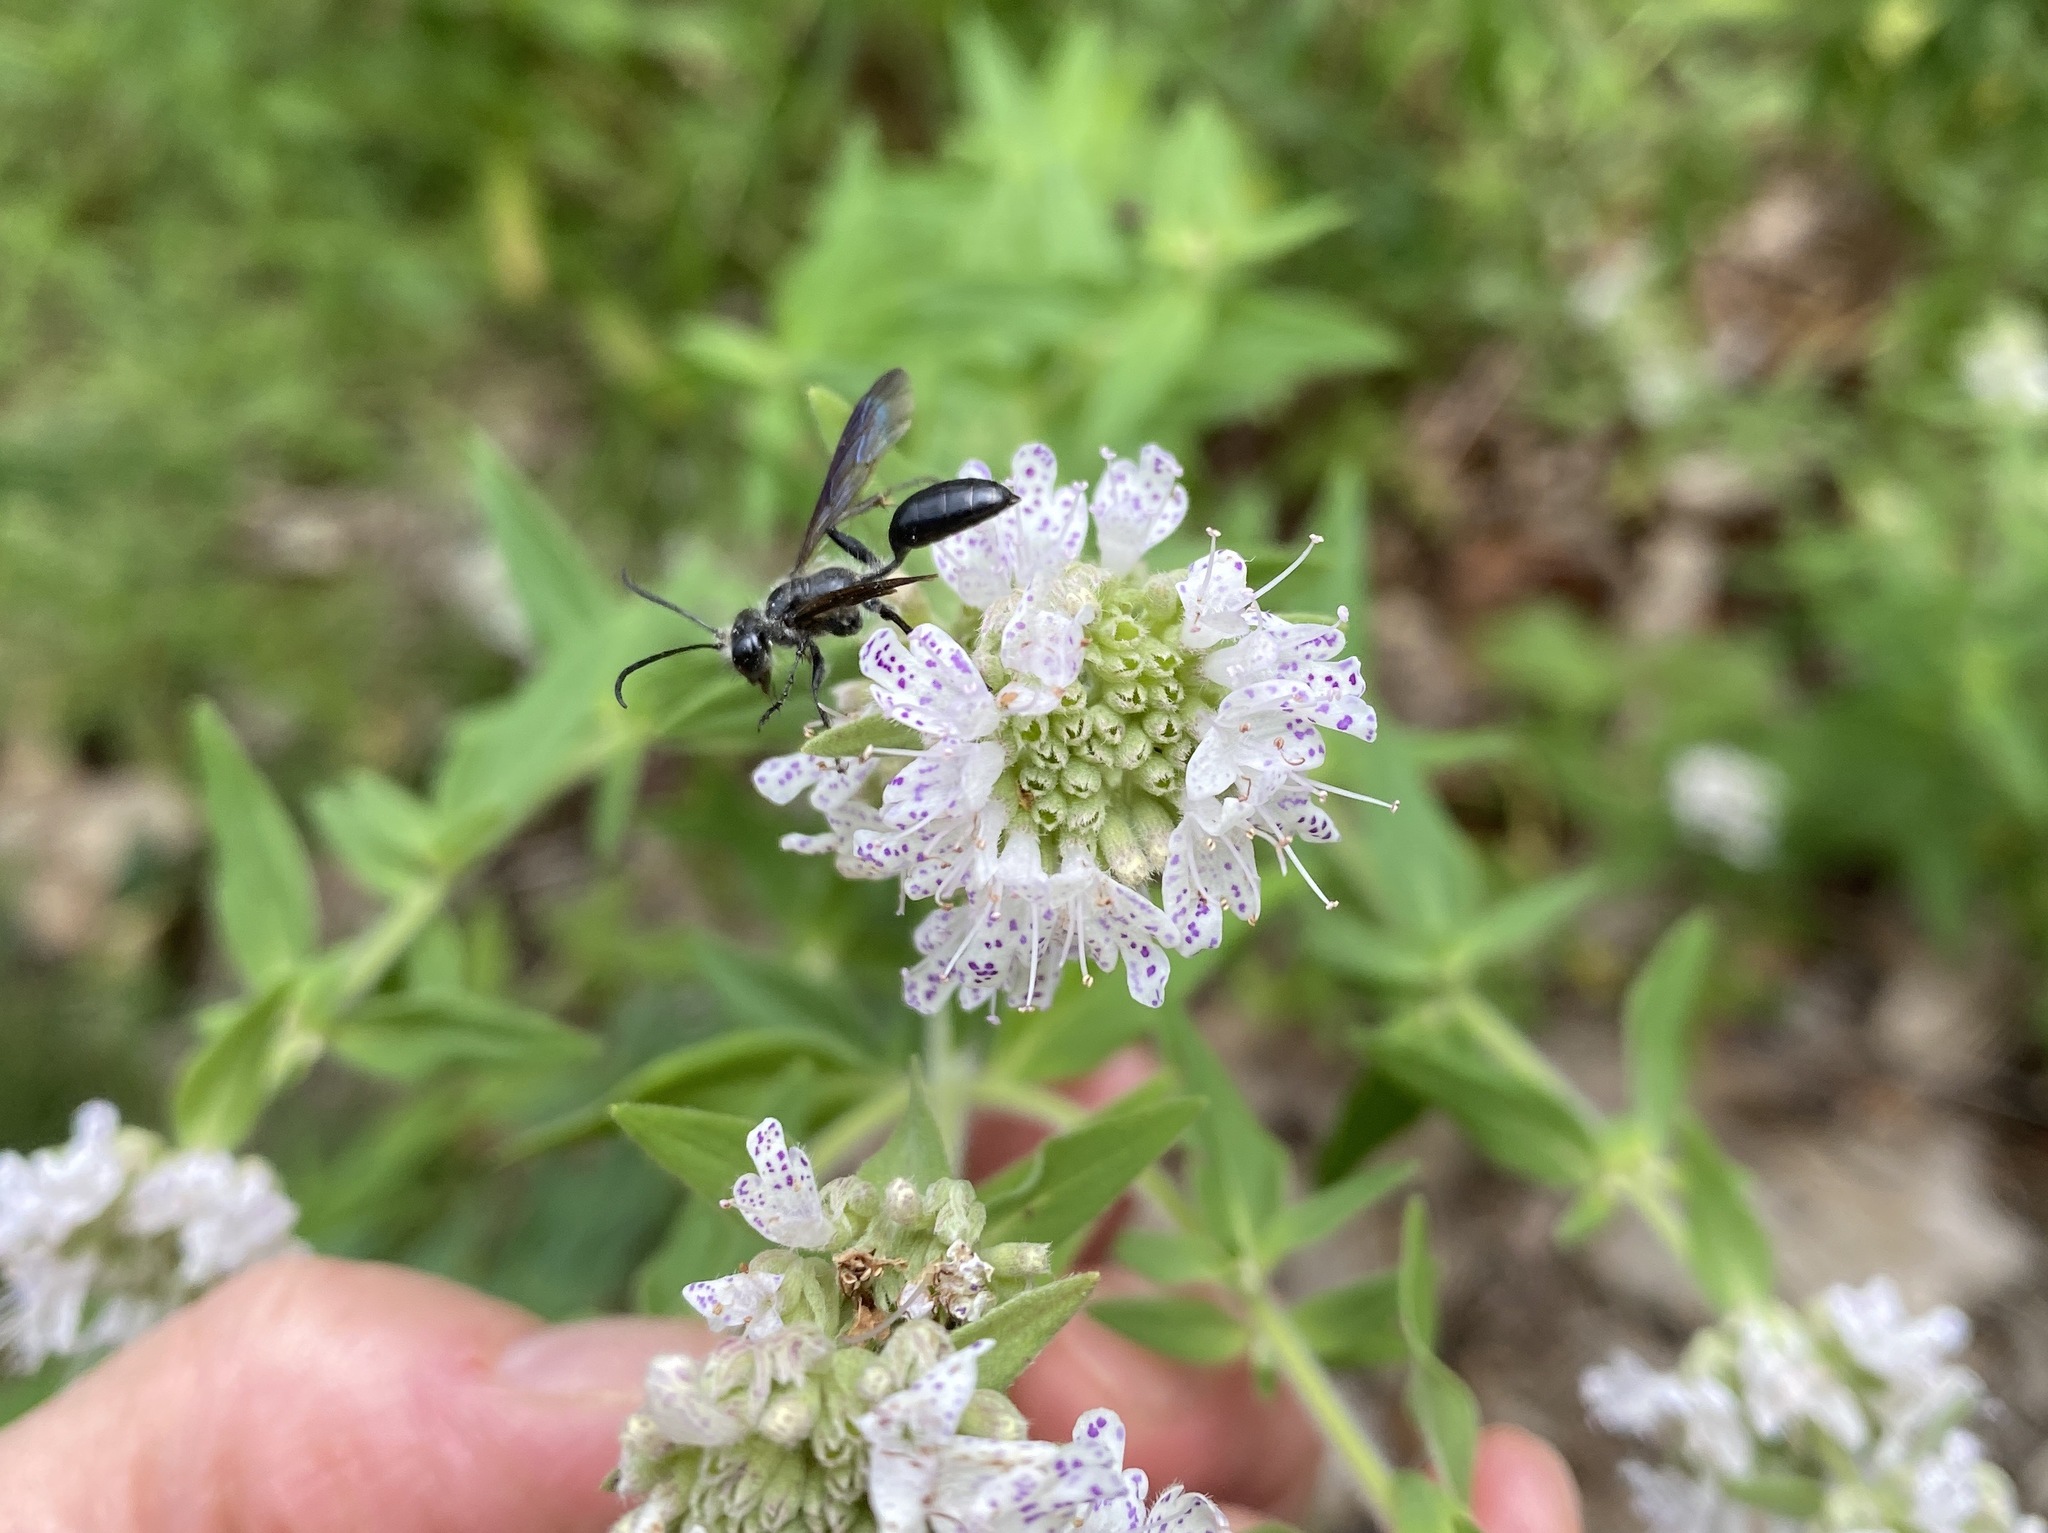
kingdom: Animalia
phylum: Arthropoda
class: Insecta
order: Hymenoptera
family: Sphecidae
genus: Isodontia
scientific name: Isodontia mexicana
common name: Mud dauber
